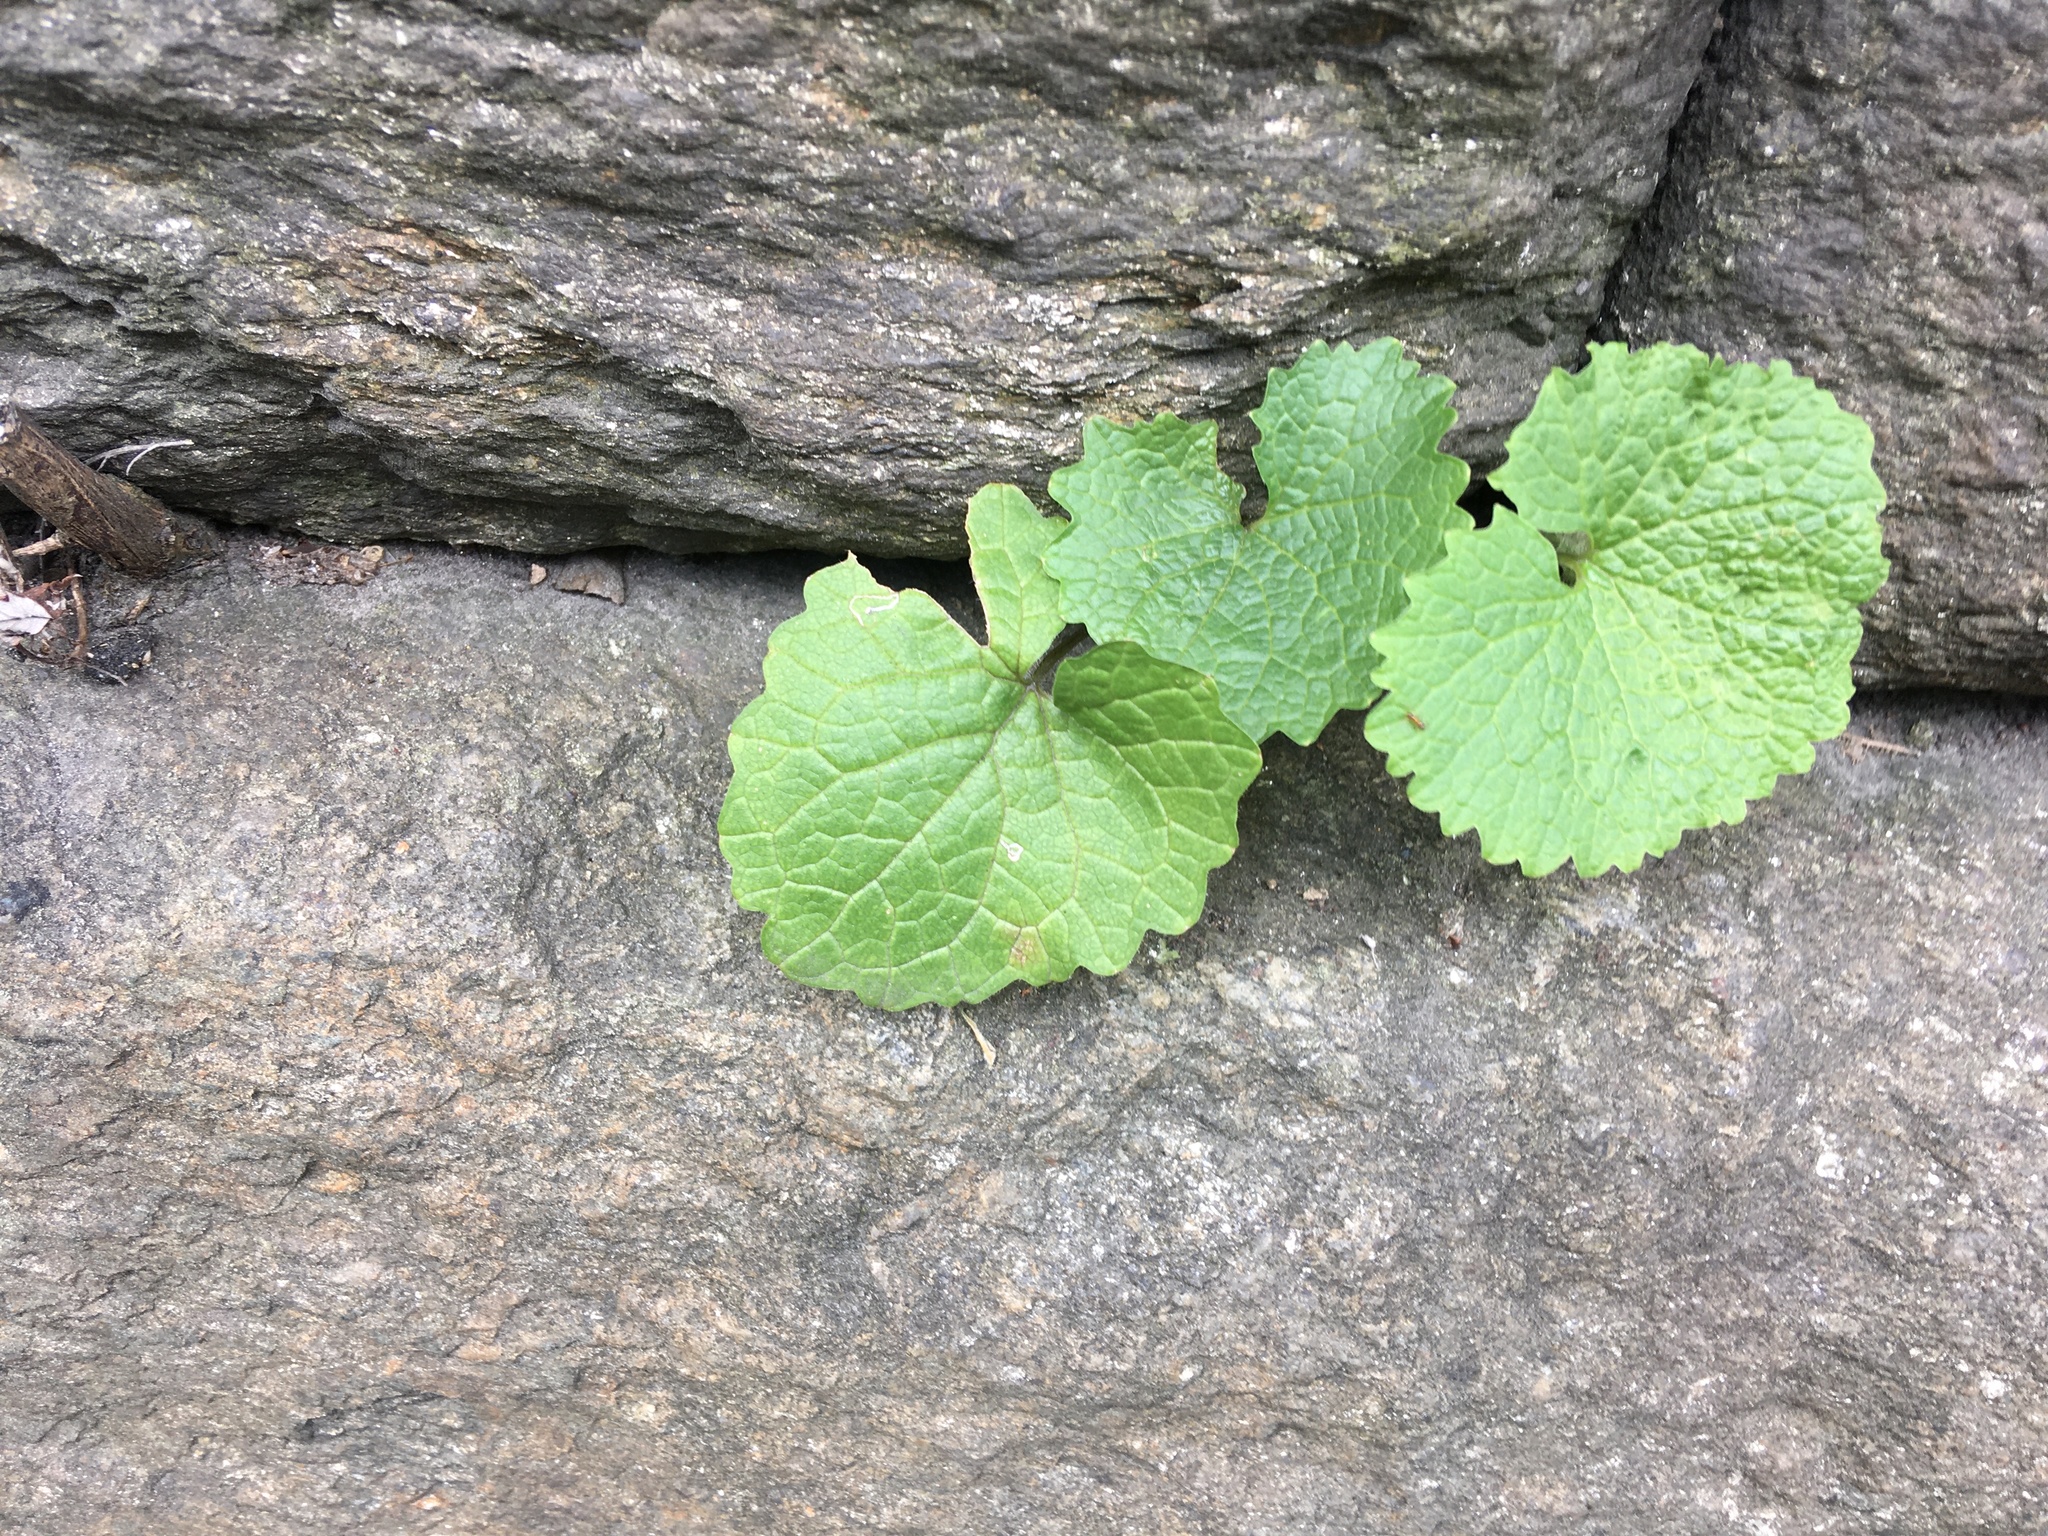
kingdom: Plantae
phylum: Tracheophyta
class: Magnoliopsida
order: Brassicales
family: Brassicaceae
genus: Alliaria
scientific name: Alliaria petiolata
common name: Garlic mustard
